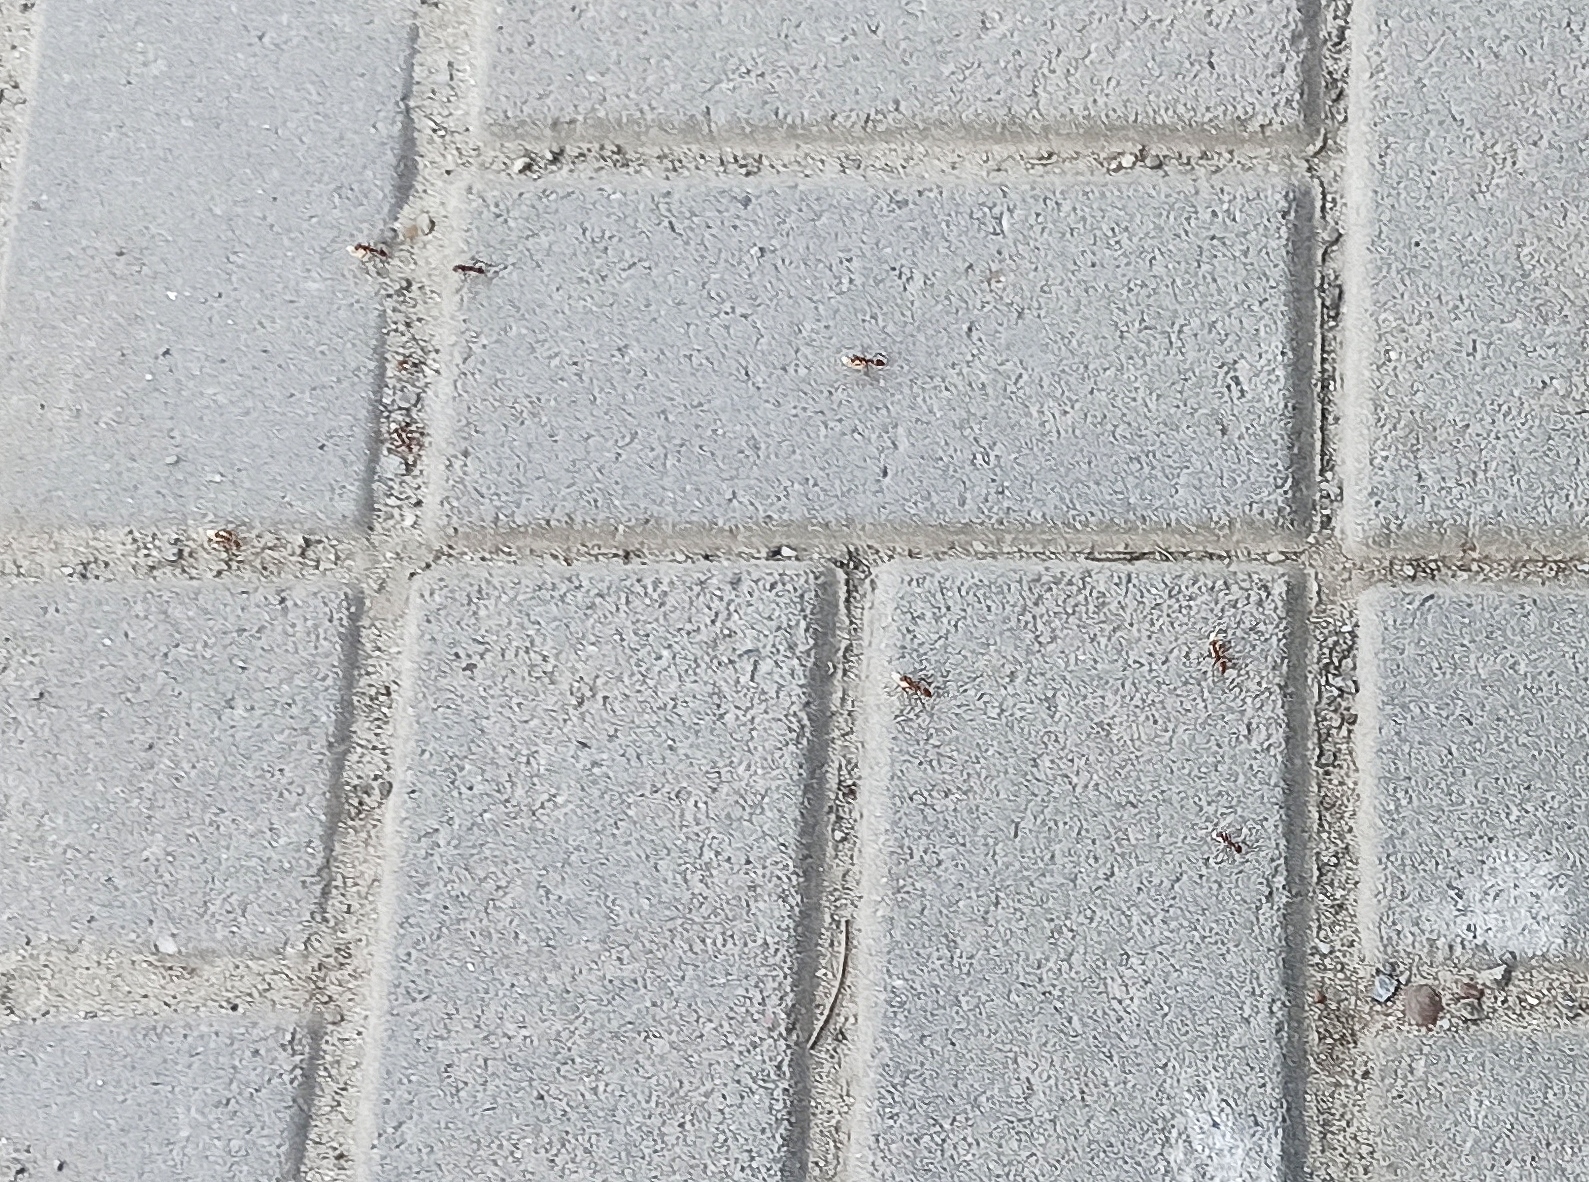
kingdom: Animalia
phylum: Arthropoda
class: Insecta
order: Hymenoptera
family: Formicidae
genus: Polyergus
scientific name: Polyergus rufescens
